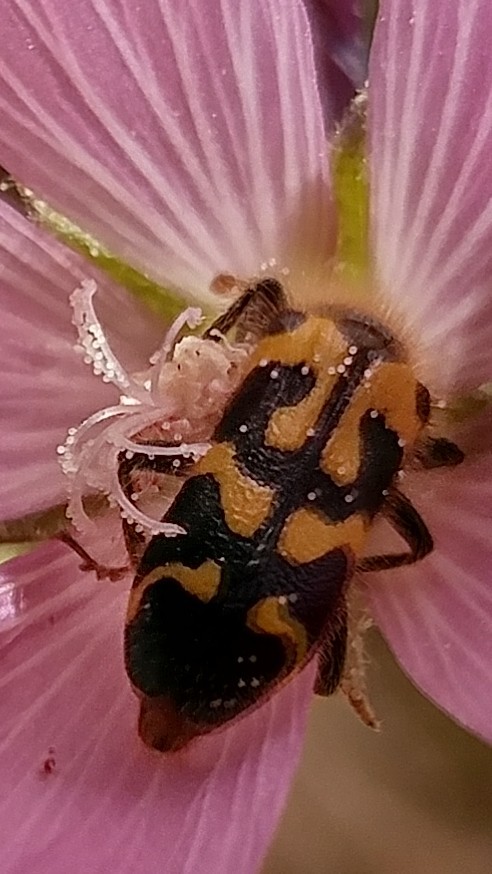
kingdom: Animalia
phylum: Arthropoda
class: Insecta
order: Coleoptera
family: Cleridae
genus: Trichodes
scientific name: Trichodes ornatus
